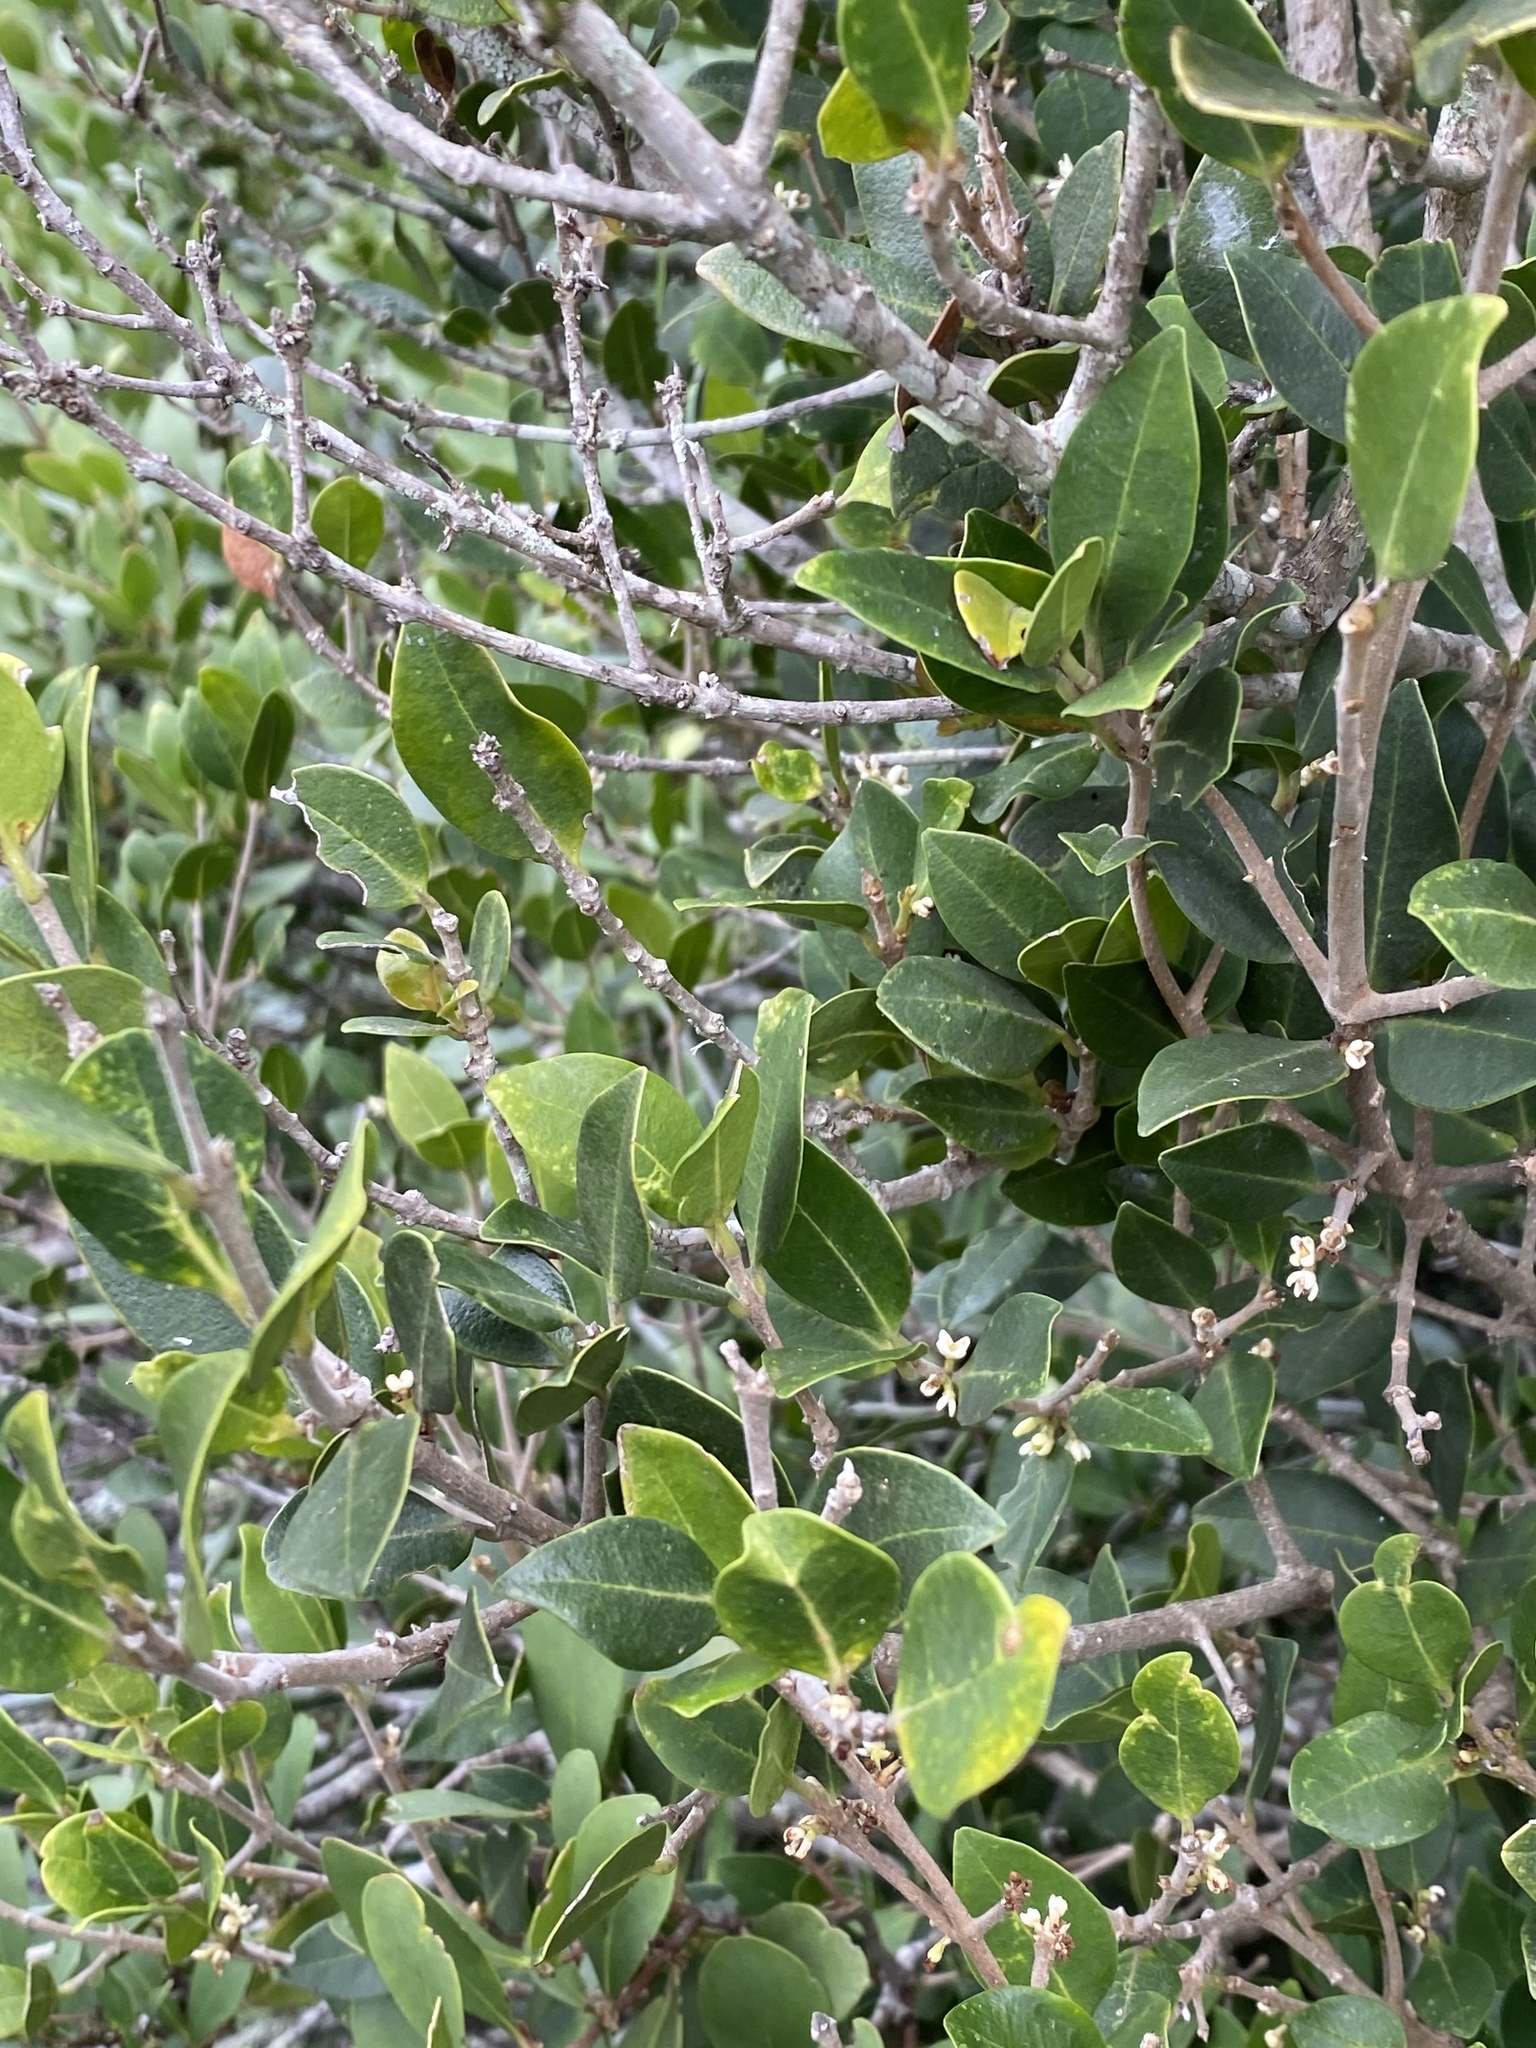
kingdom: Plantae
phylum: Tracheophyta
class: Magnoliopsida
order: Lamiales
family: Oleaceae
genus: Noronhia
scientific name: Noronhia foveolata
